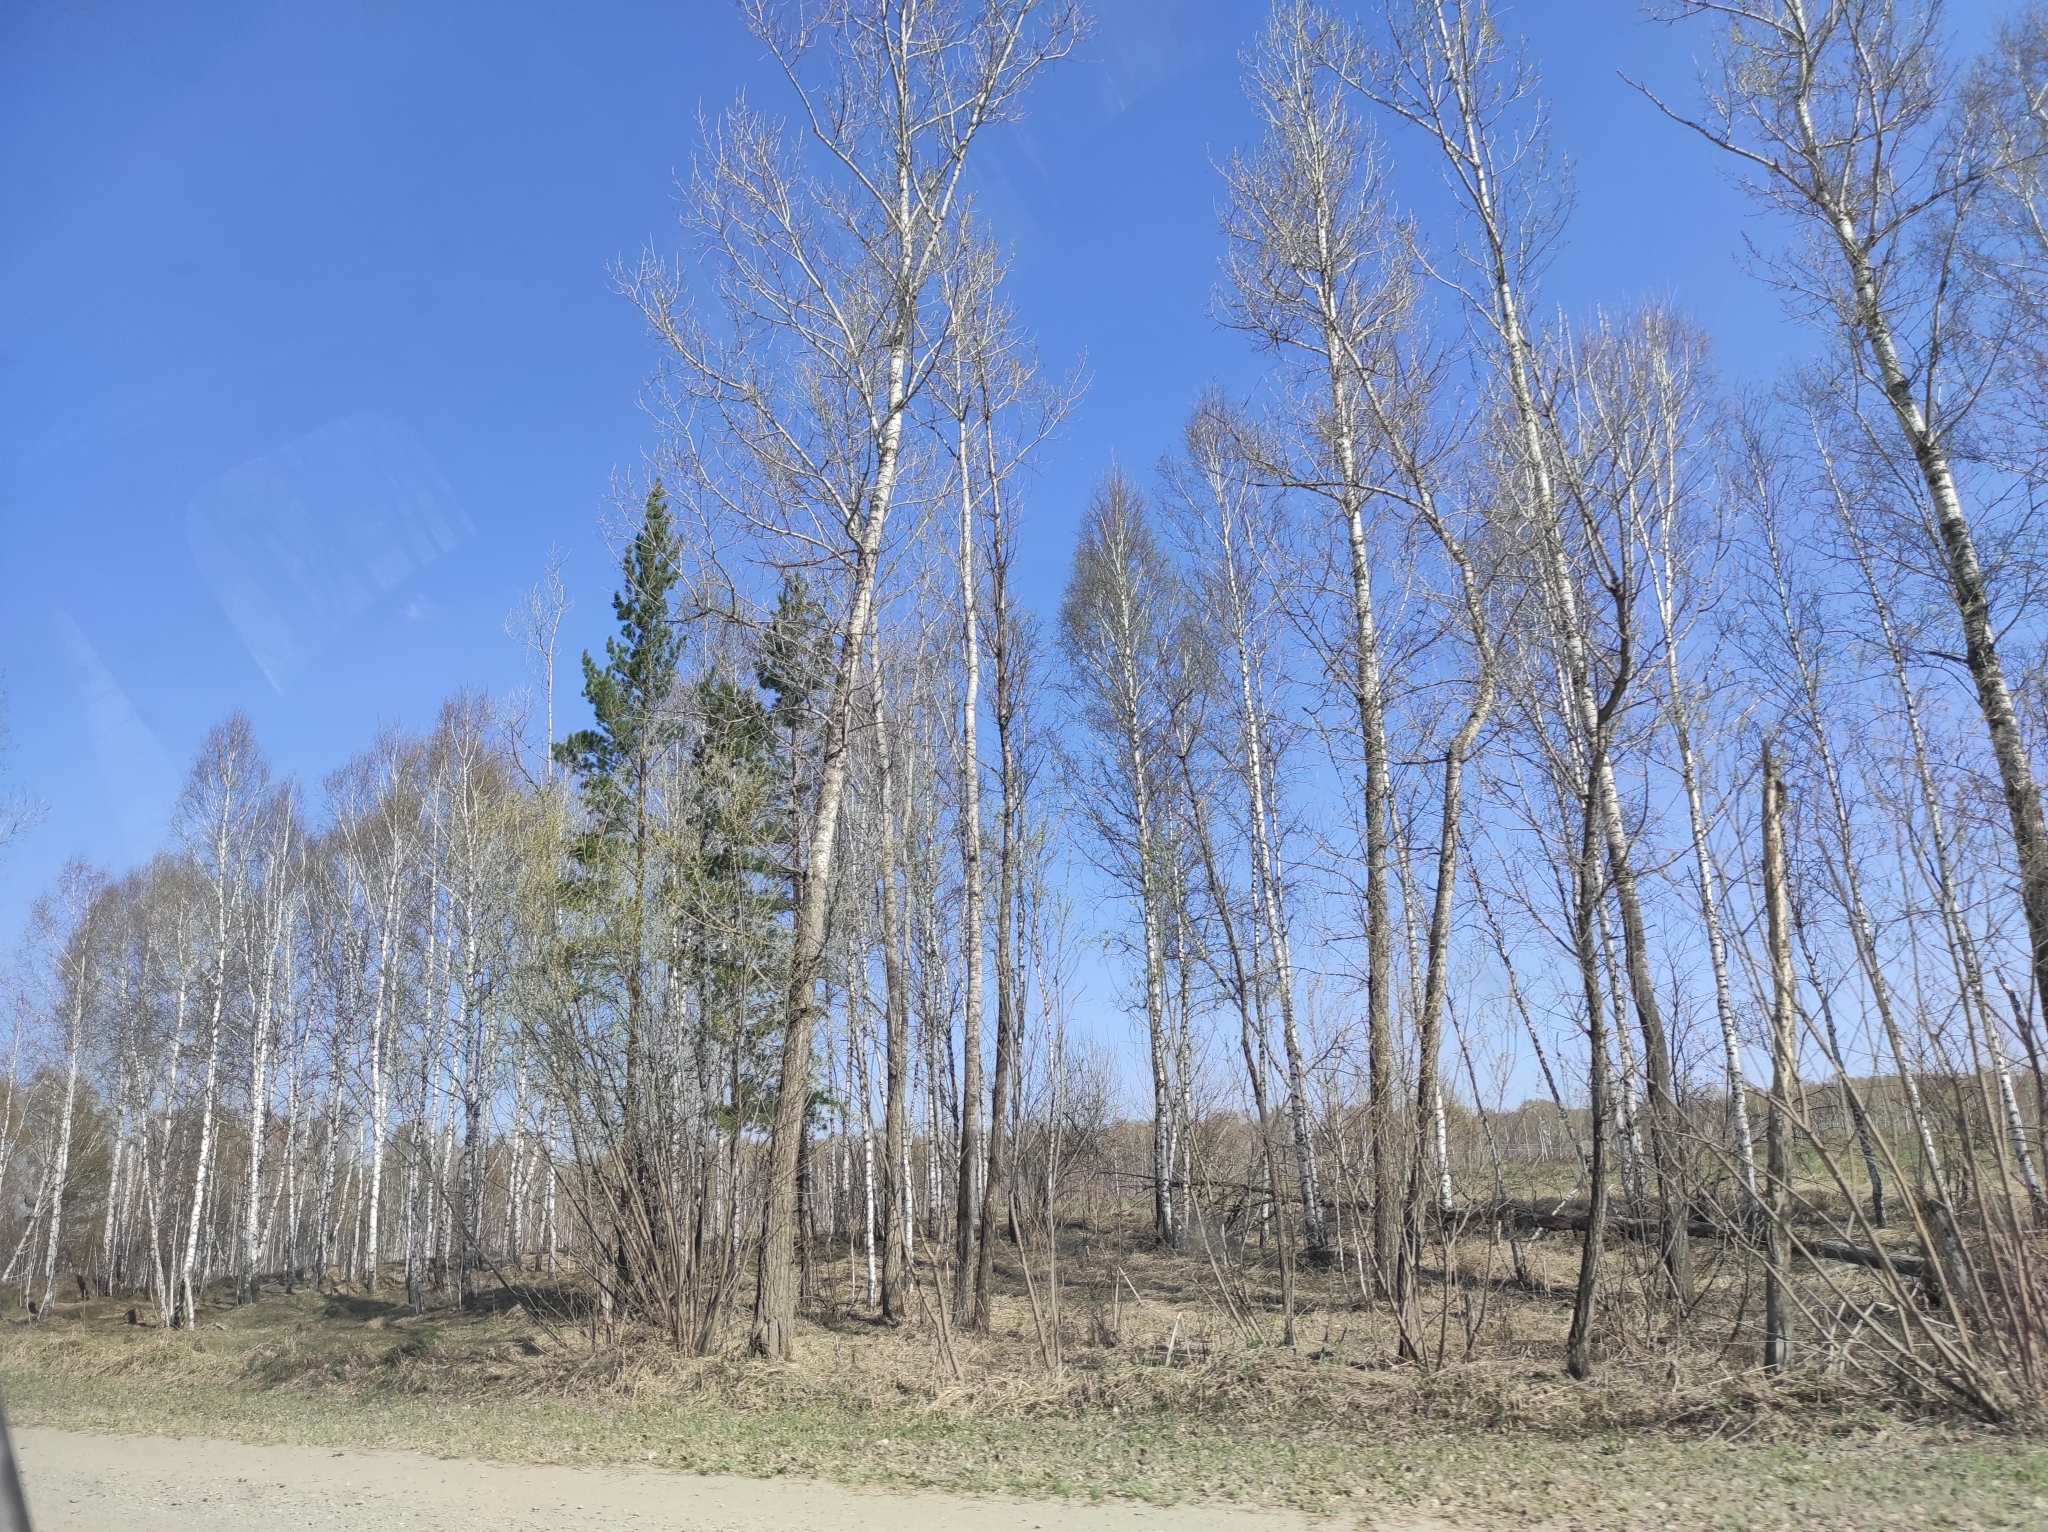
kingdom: Plantae
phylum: Tracheophyta
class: Magnoliopsida
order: Fagales
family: Betulaceae
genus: Betula
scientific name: Betula pendula
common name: Silver birch
